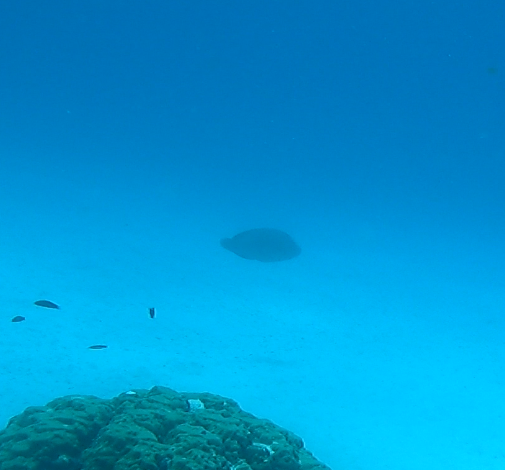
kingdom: Animalia
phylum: Chordata
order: Perciformes
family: Labridae
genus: Cheilinus
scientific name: Cheilinus undulatus
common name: Humphead wrasse
